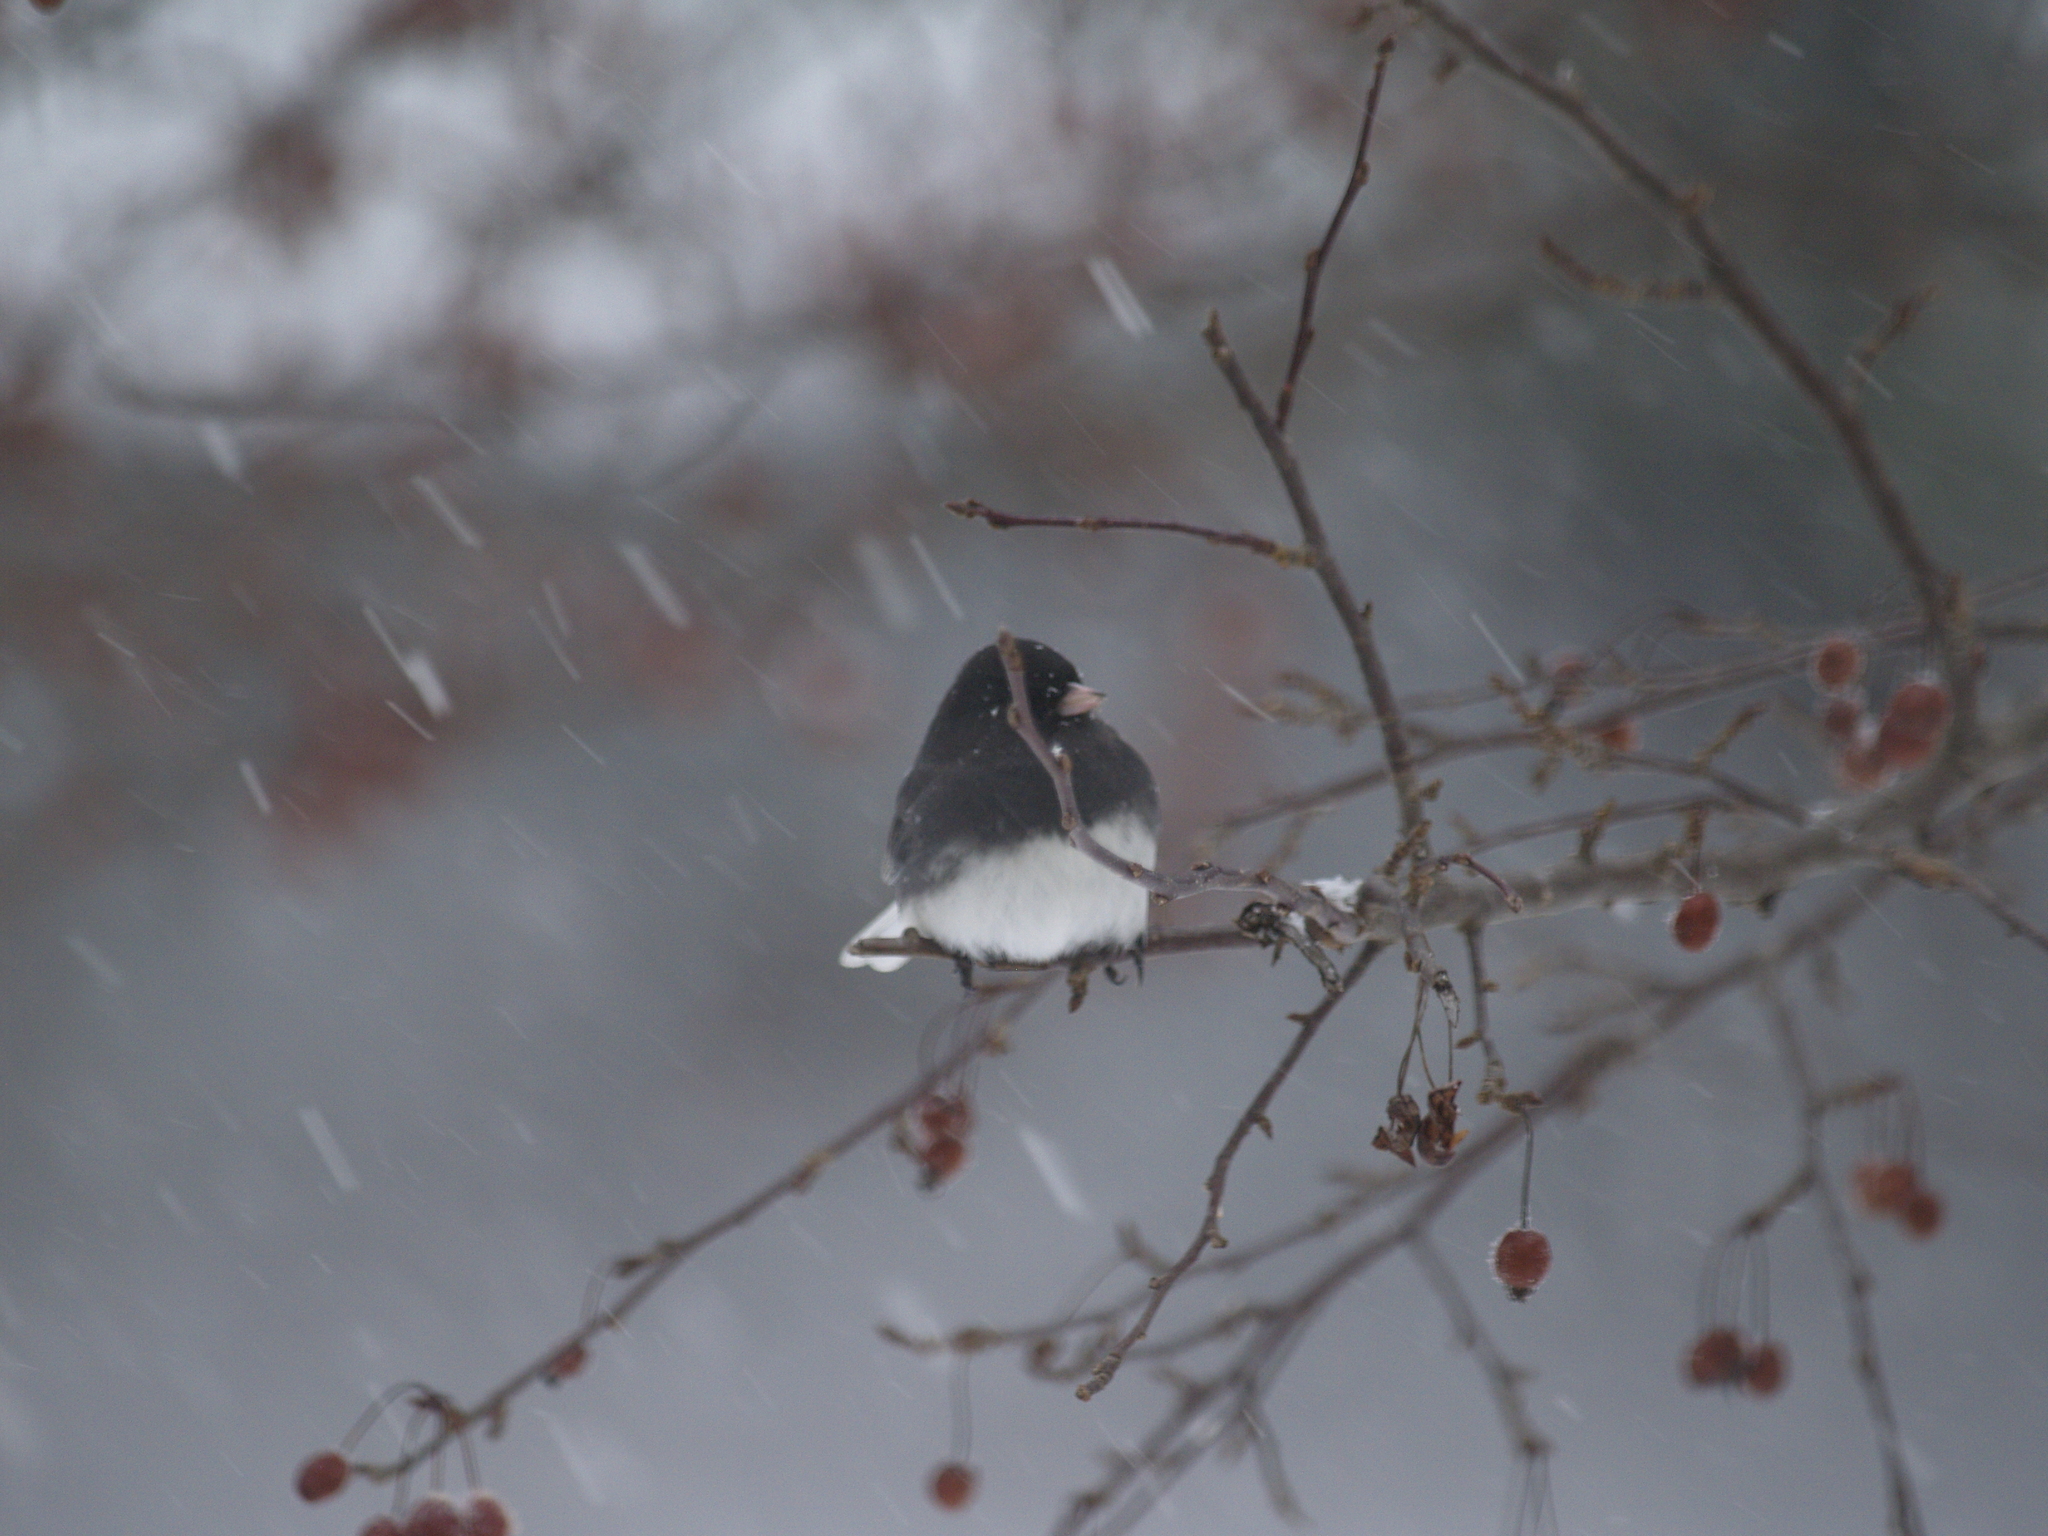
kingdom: Animalia
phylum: Chordata
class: Aves
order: Passeriformes
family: Passerellidae
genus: Junco
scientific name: Junco hyemalis
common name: Dark-eyed junco
